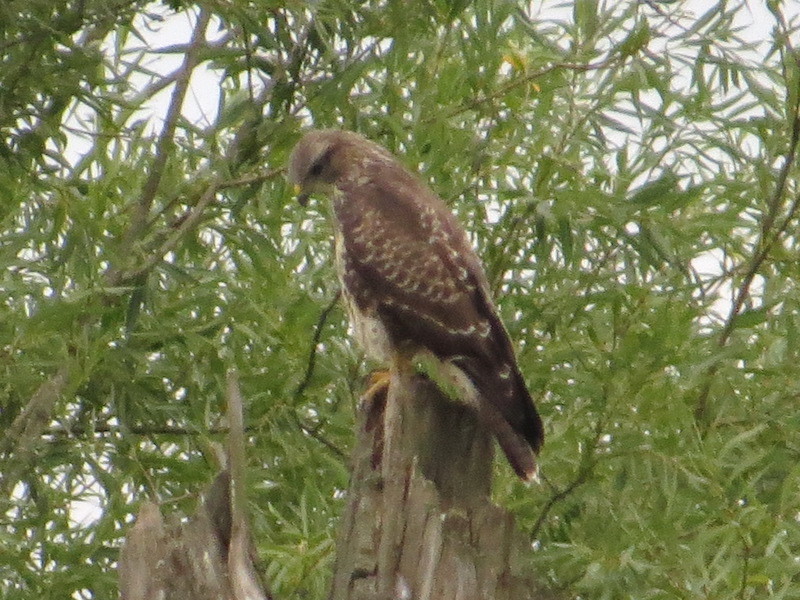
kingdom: Animalia
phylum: Chordata
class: Aves
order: Accipitriformes
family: Accipitridae
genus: Buteo
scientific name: Buteo buteo
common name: Common buzzard
